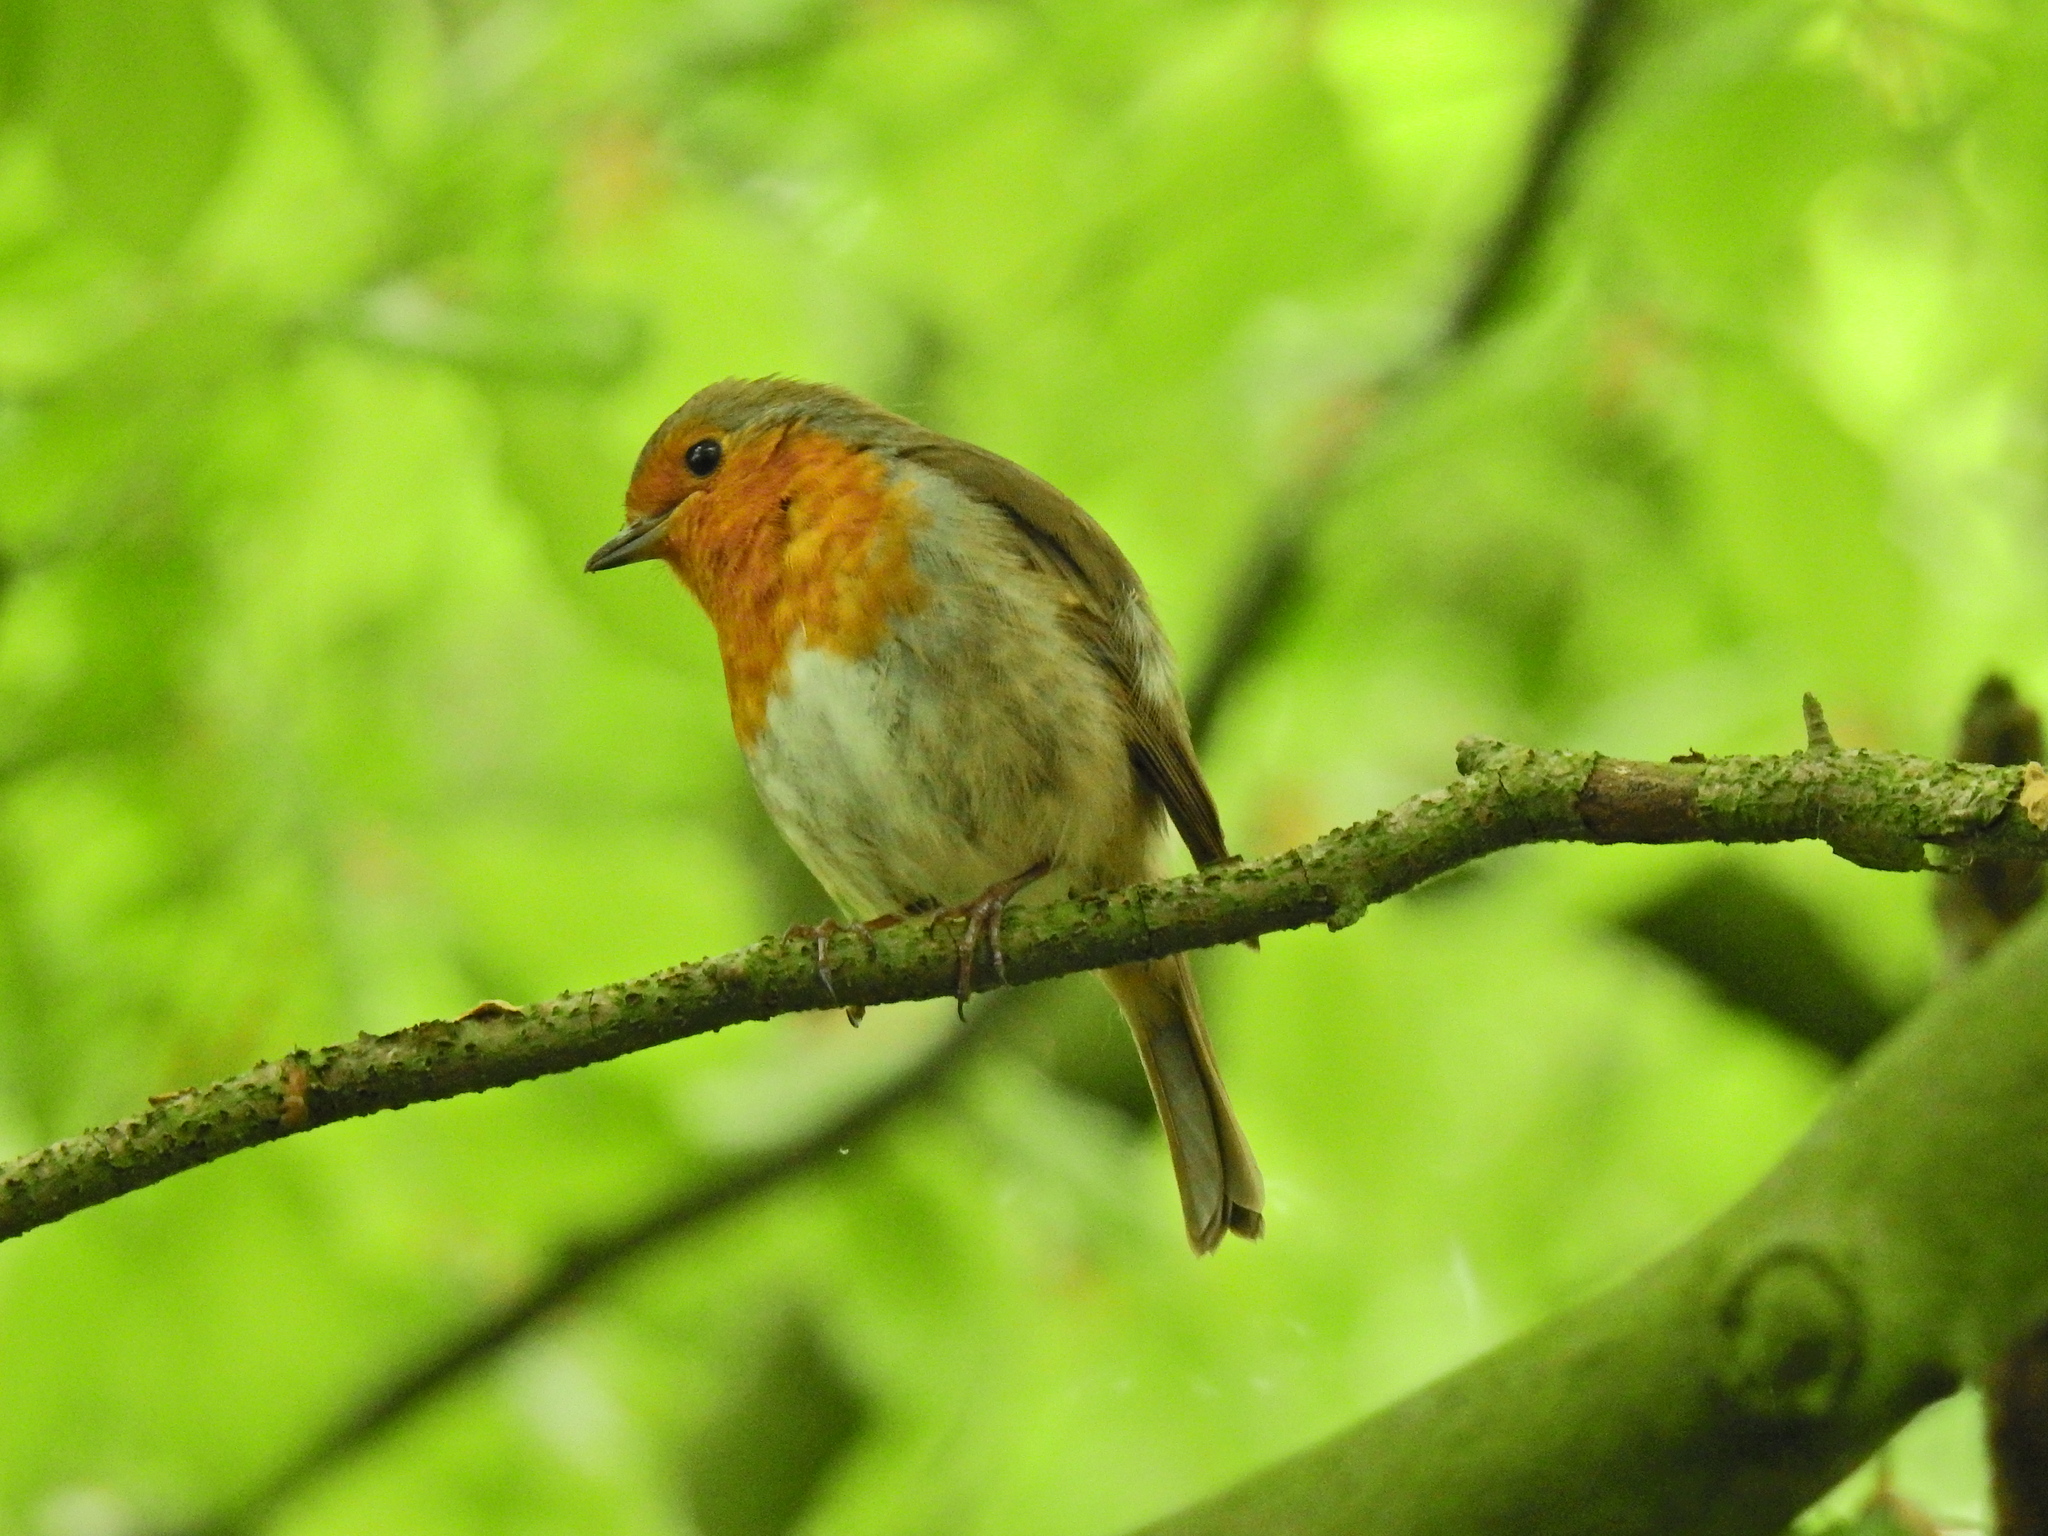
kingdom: Animalia
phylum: Chordata
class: Aves
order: Passeriformes
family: Muscicapidae
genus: Erithacus
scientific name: Erithacus rubecula
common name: European robin
